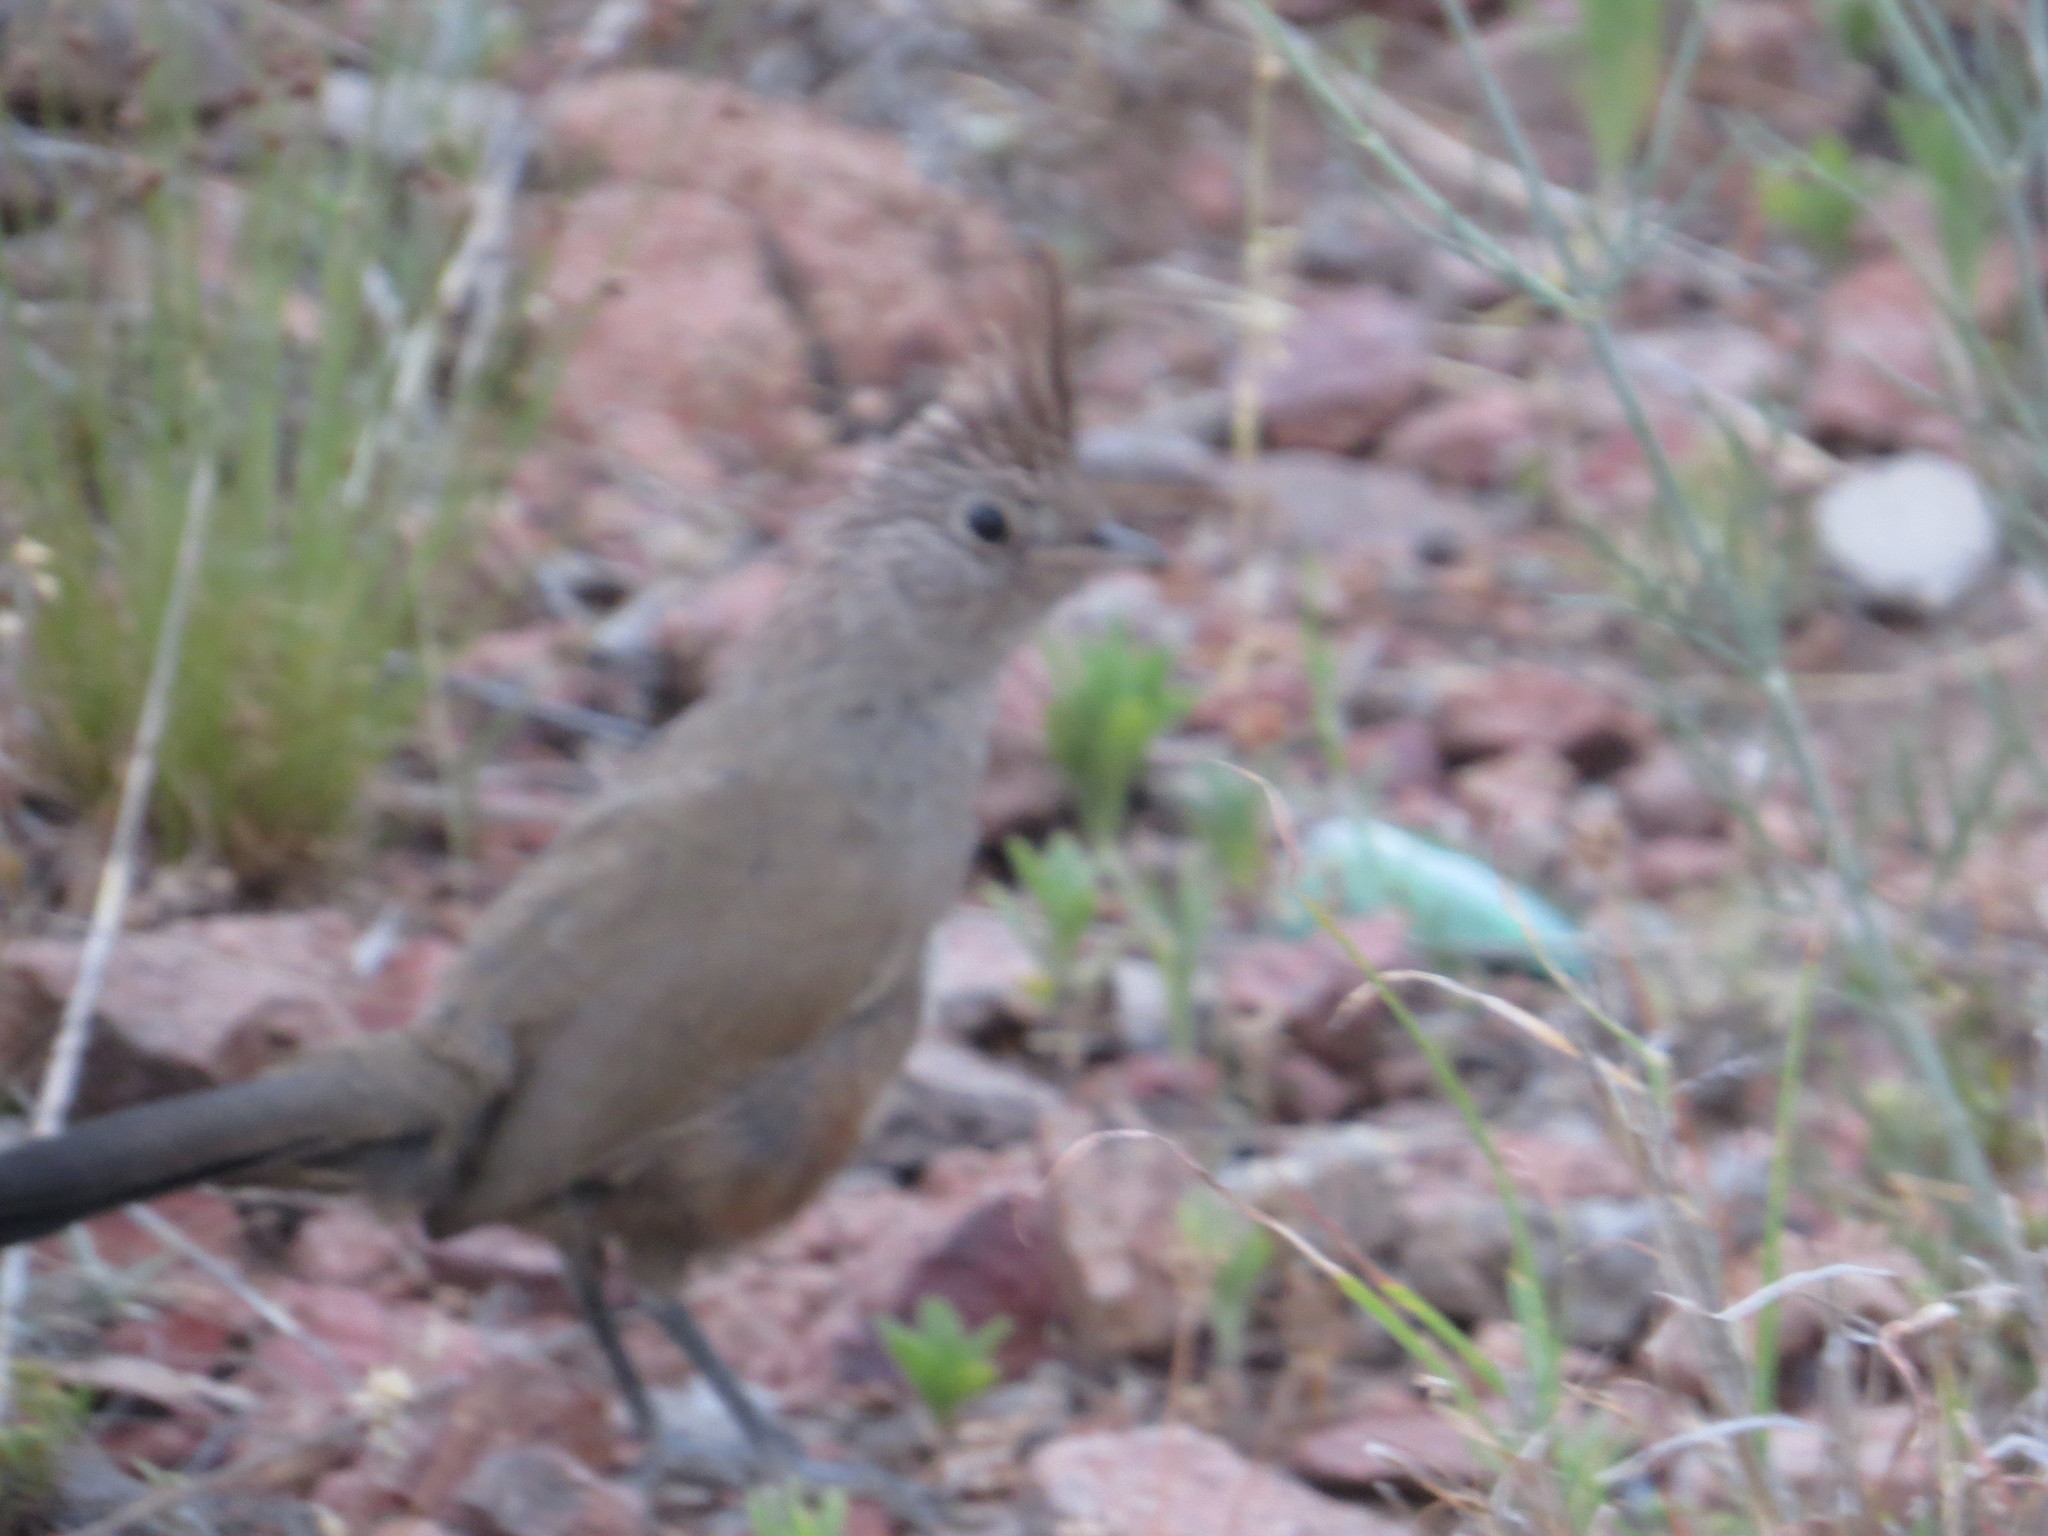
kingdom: Animalia
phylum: Chordata
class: Aves
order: Passeriformes
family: Rhinocryptidae
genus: Rhinocrypta
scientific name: Rhinocrypta lanceolata
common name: Crested gallito
